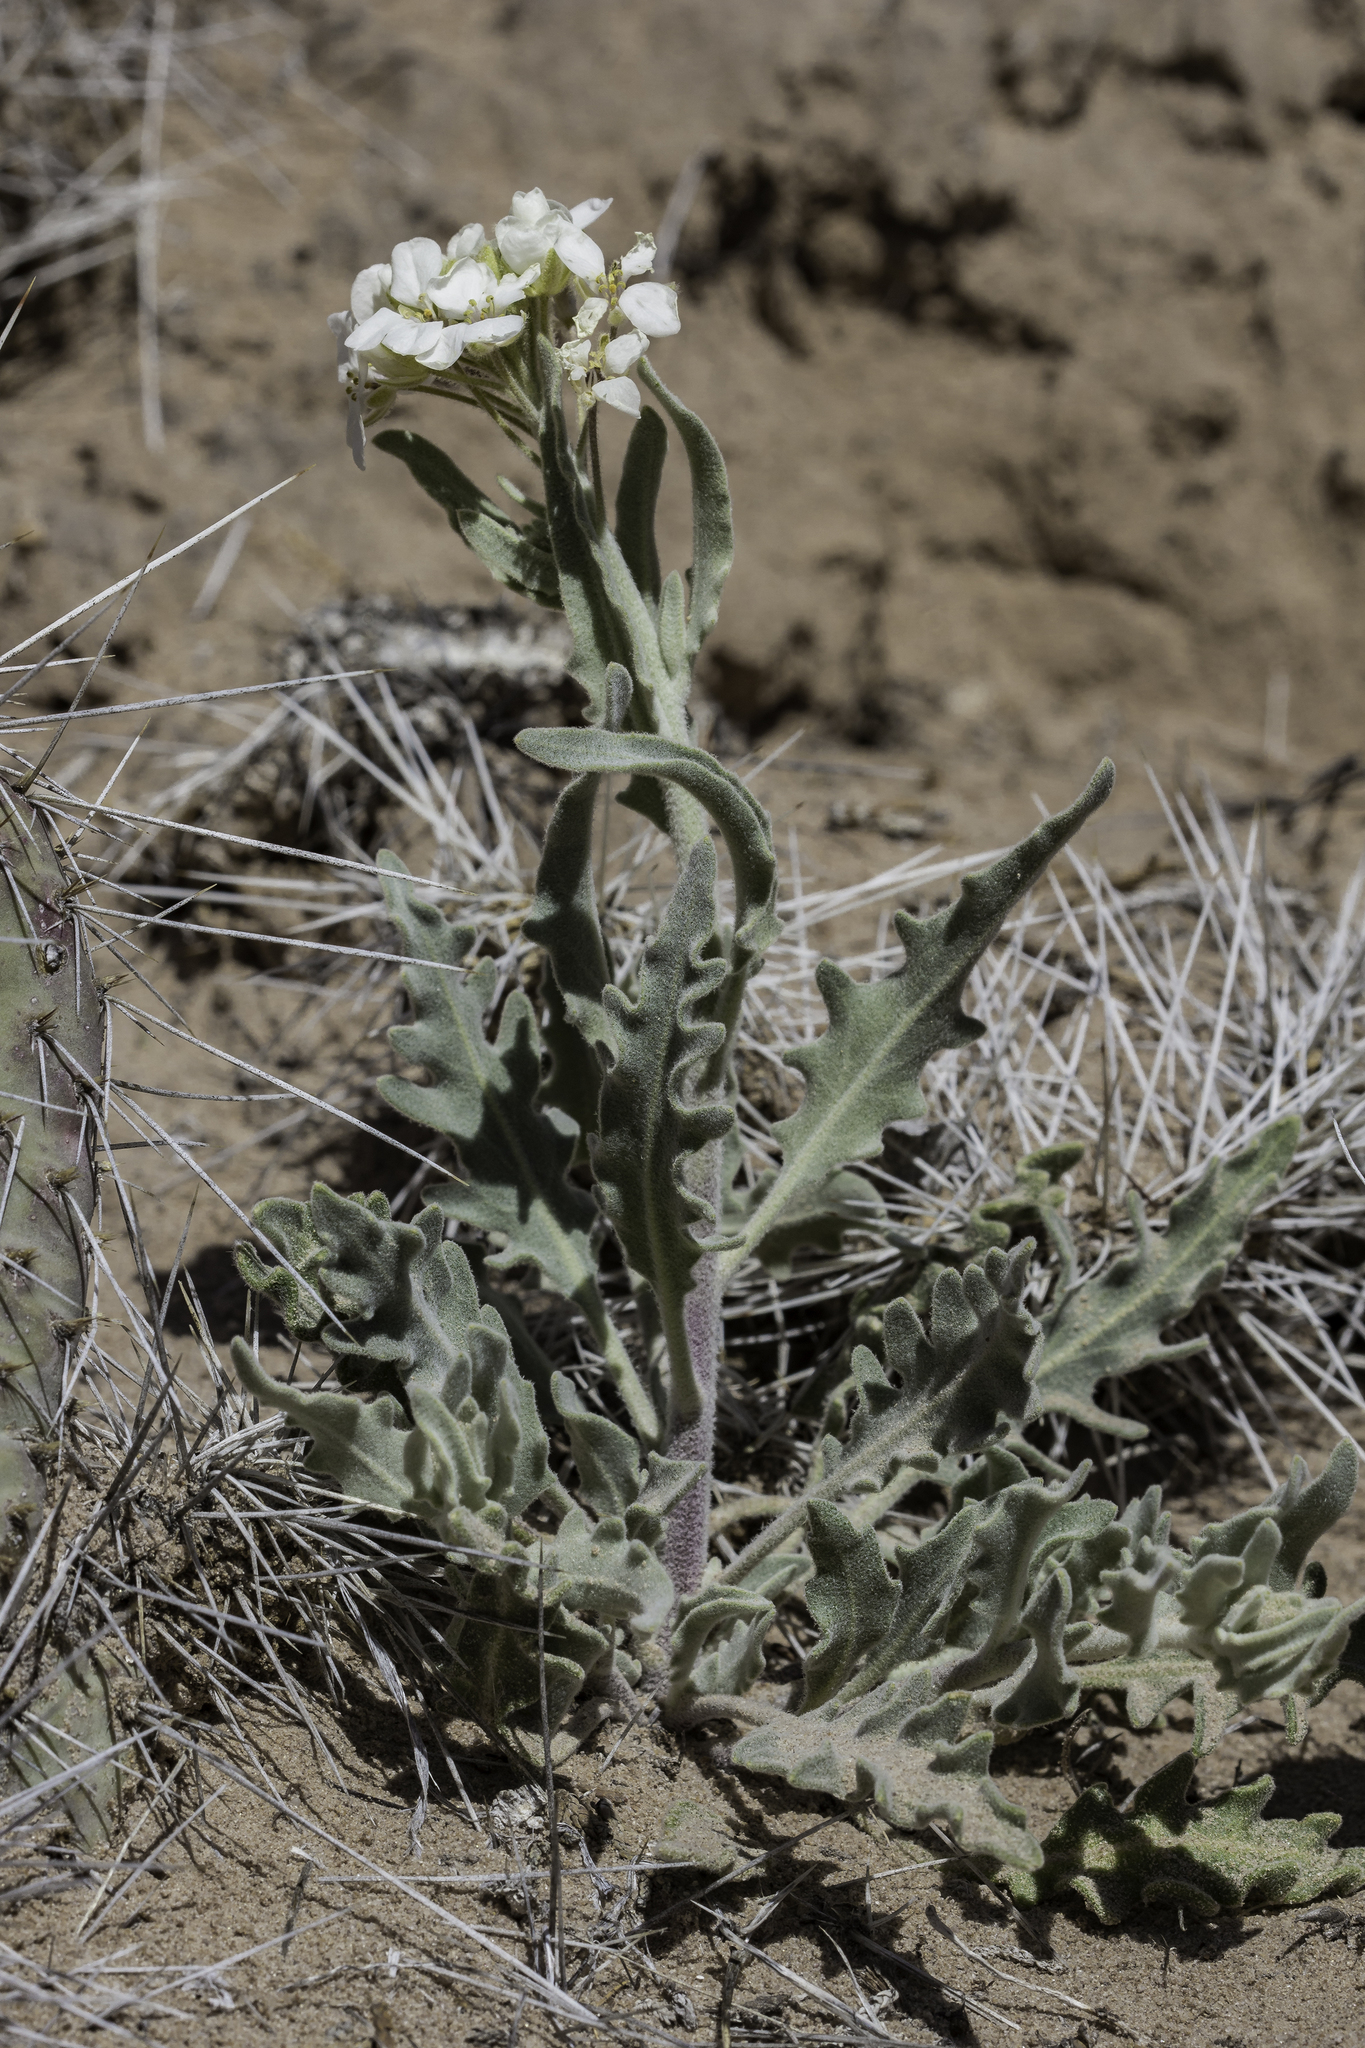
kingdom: Plantae
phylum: Tracheophyta
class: Magnoliopsida
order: Brassicales
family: Brassicaceae
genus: Dimorphocarpa
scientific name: Dimorphocarpa wislizenii
